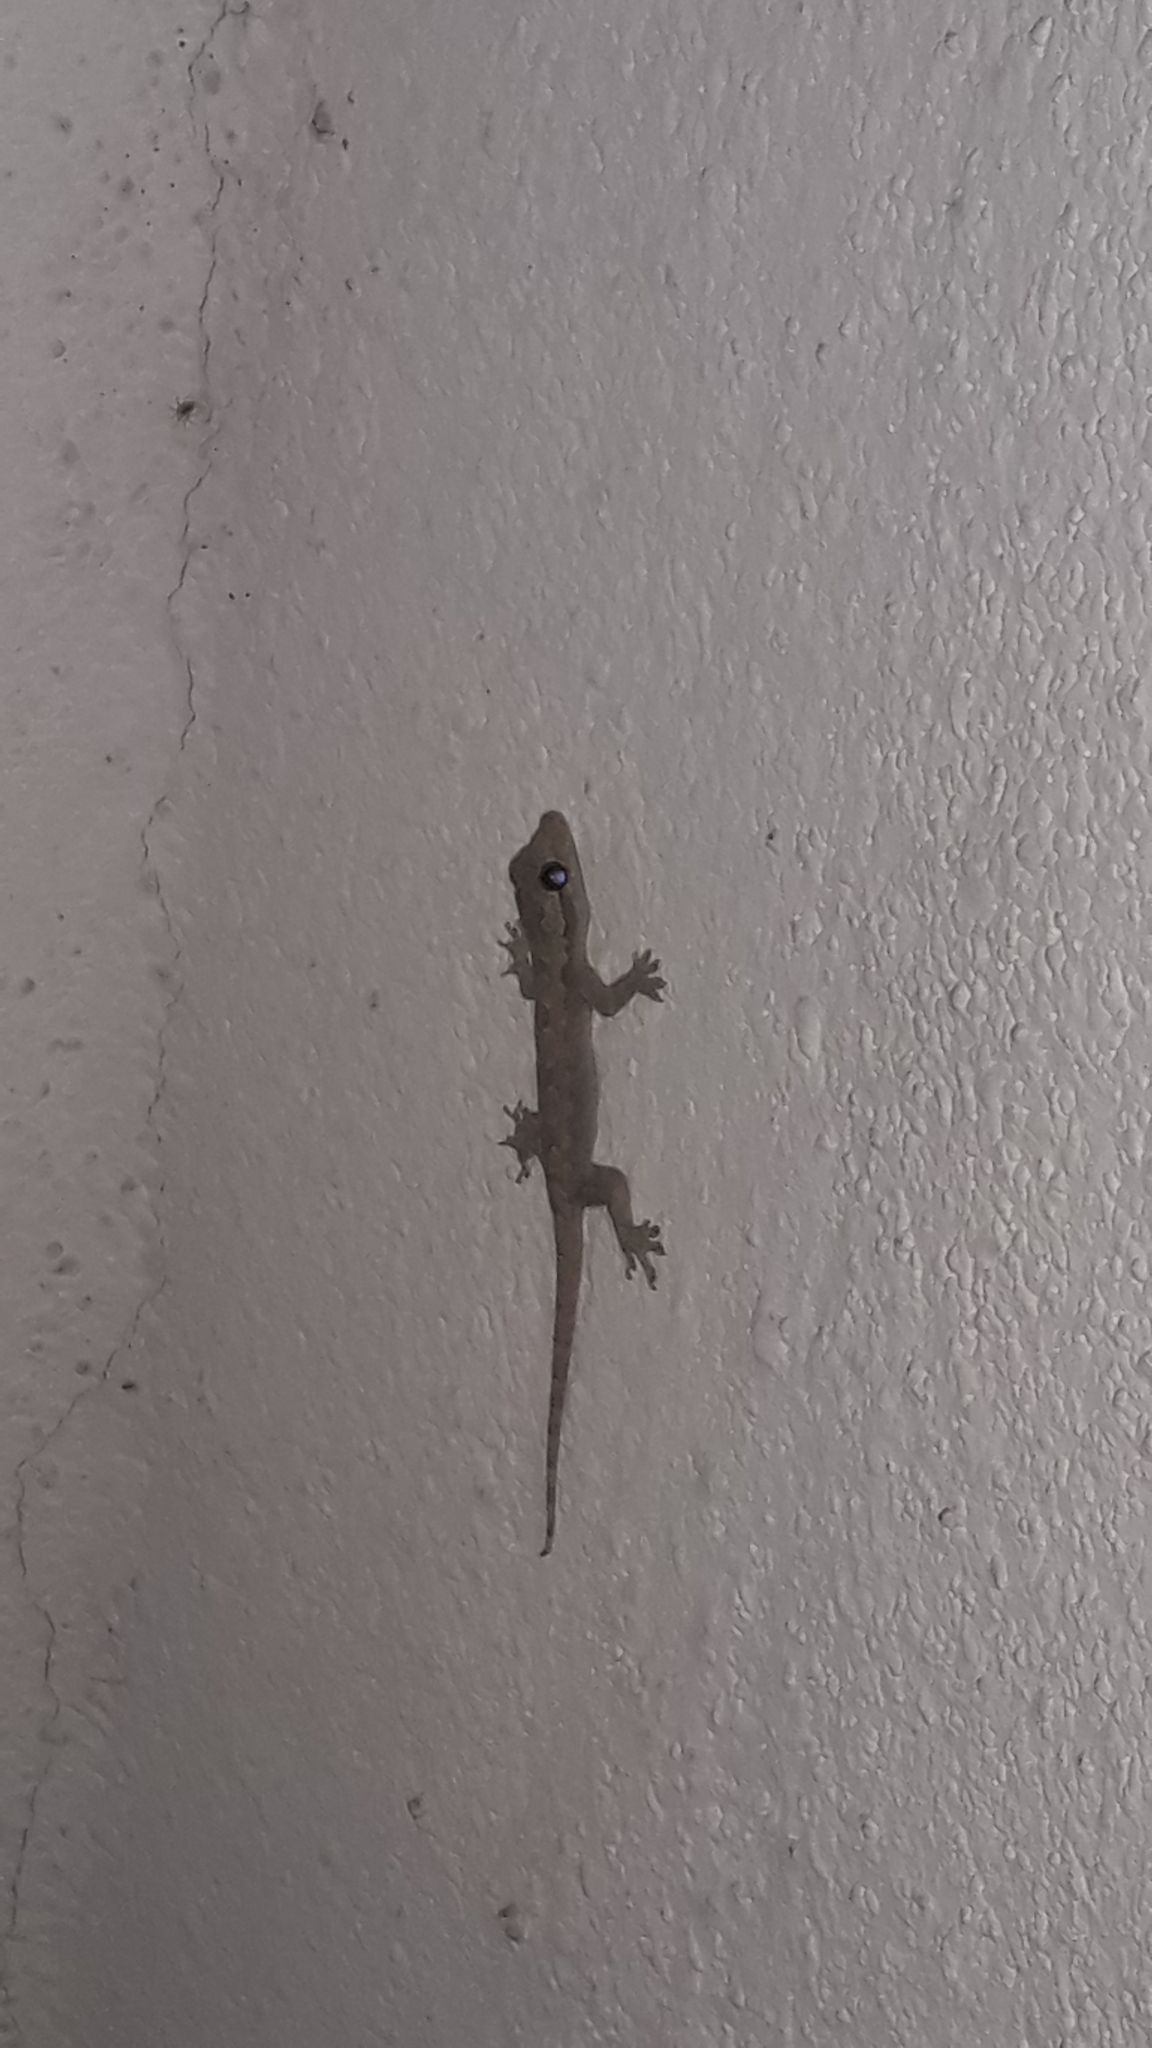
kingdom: Animalia
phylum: Chordata
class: Squamata
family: Gekkonidae
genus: Hemidactylus
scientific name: Hemidactylus platyurus
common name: Flat-tailed house gecko
